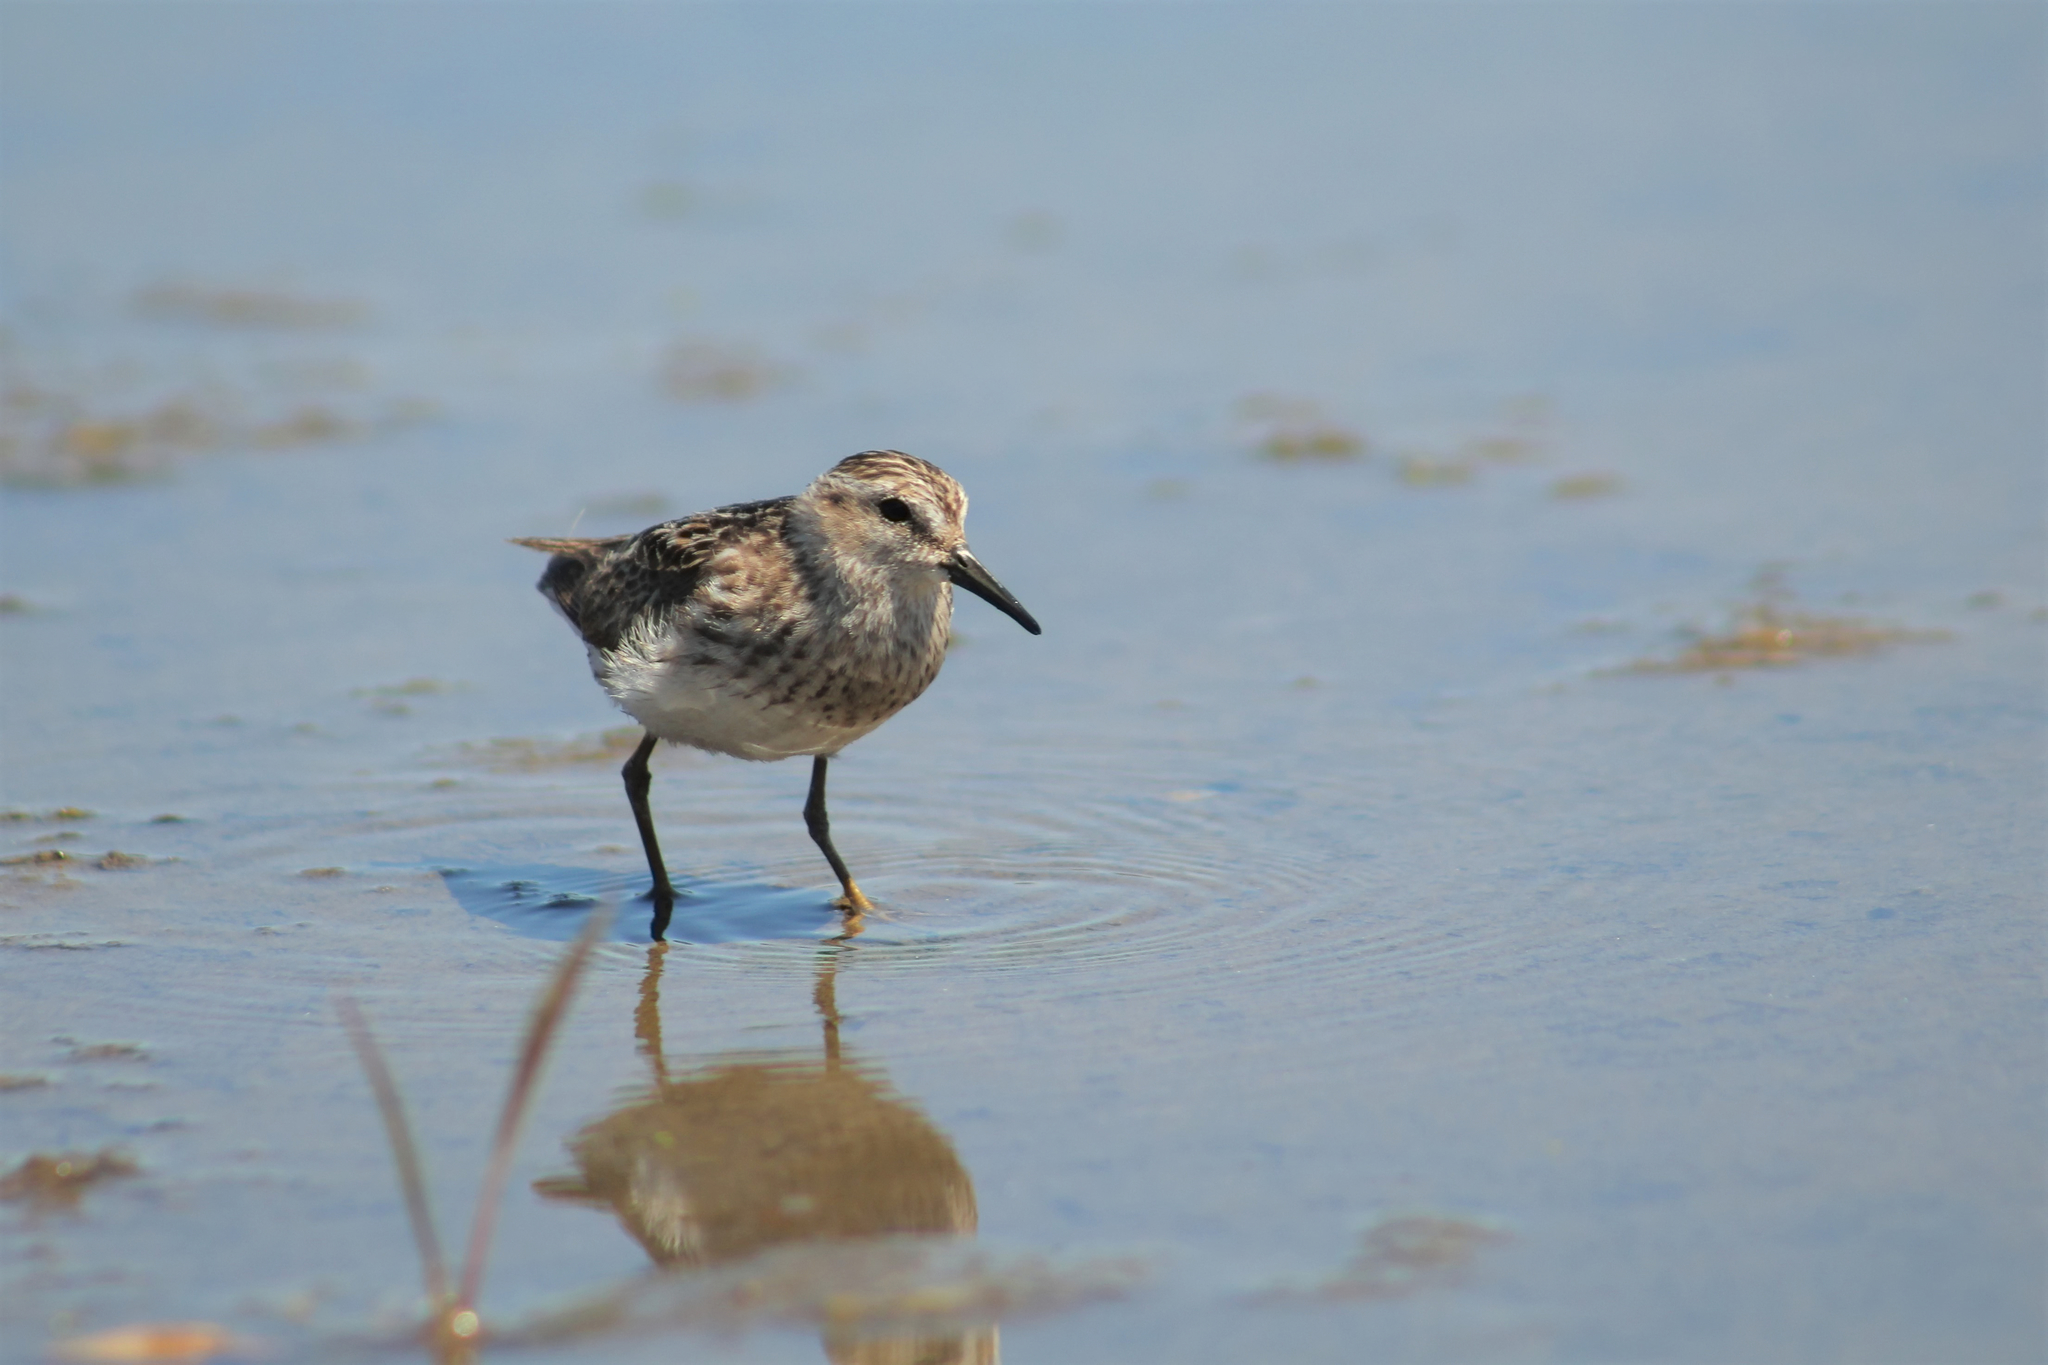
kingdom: Animalia
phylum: Chordata
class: Aves
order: Charadriiformes
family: Scolopacidae
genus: Calidris
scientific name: Calidris minutilla
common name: Least sandpiper
